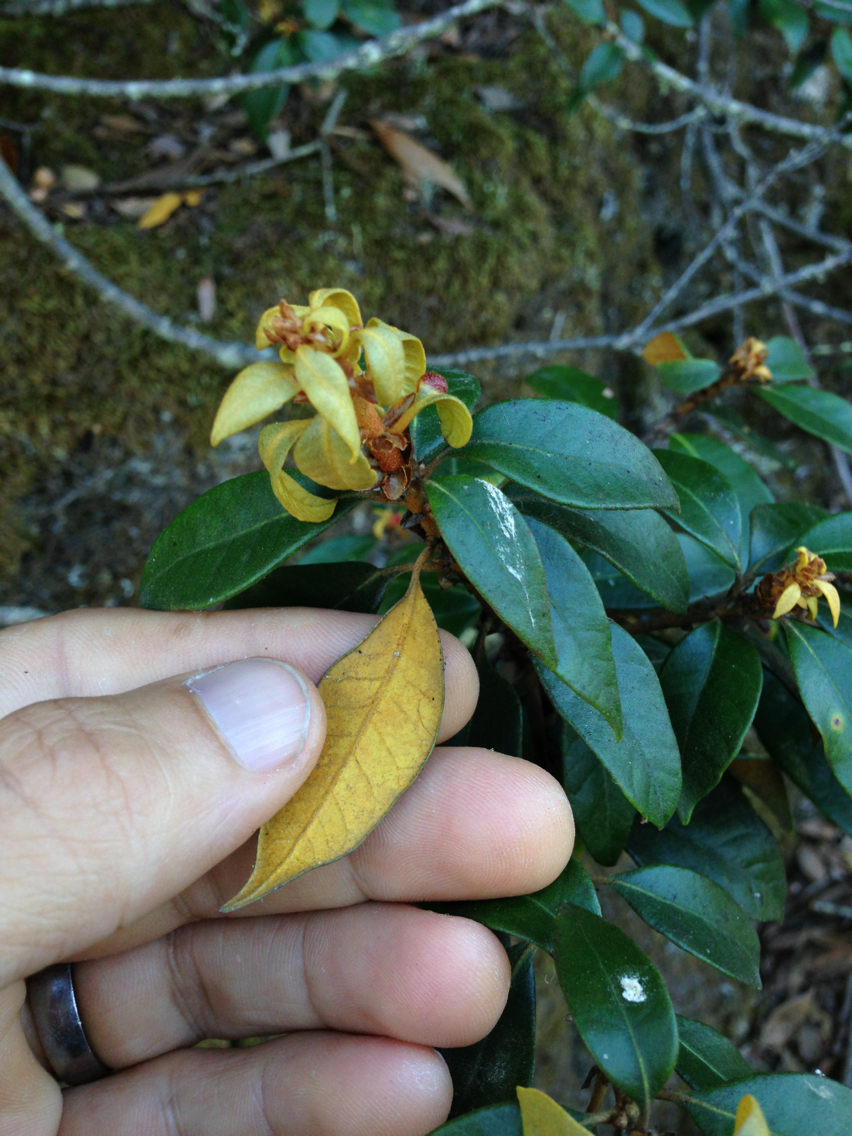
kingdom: Plantae
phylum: Tracheophyta
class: Magnoliopsida
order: Fagales
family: Fagaceae
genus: Chrysolepis
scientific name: Chrysolepis chrysophylla
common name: Giant chinquapin
